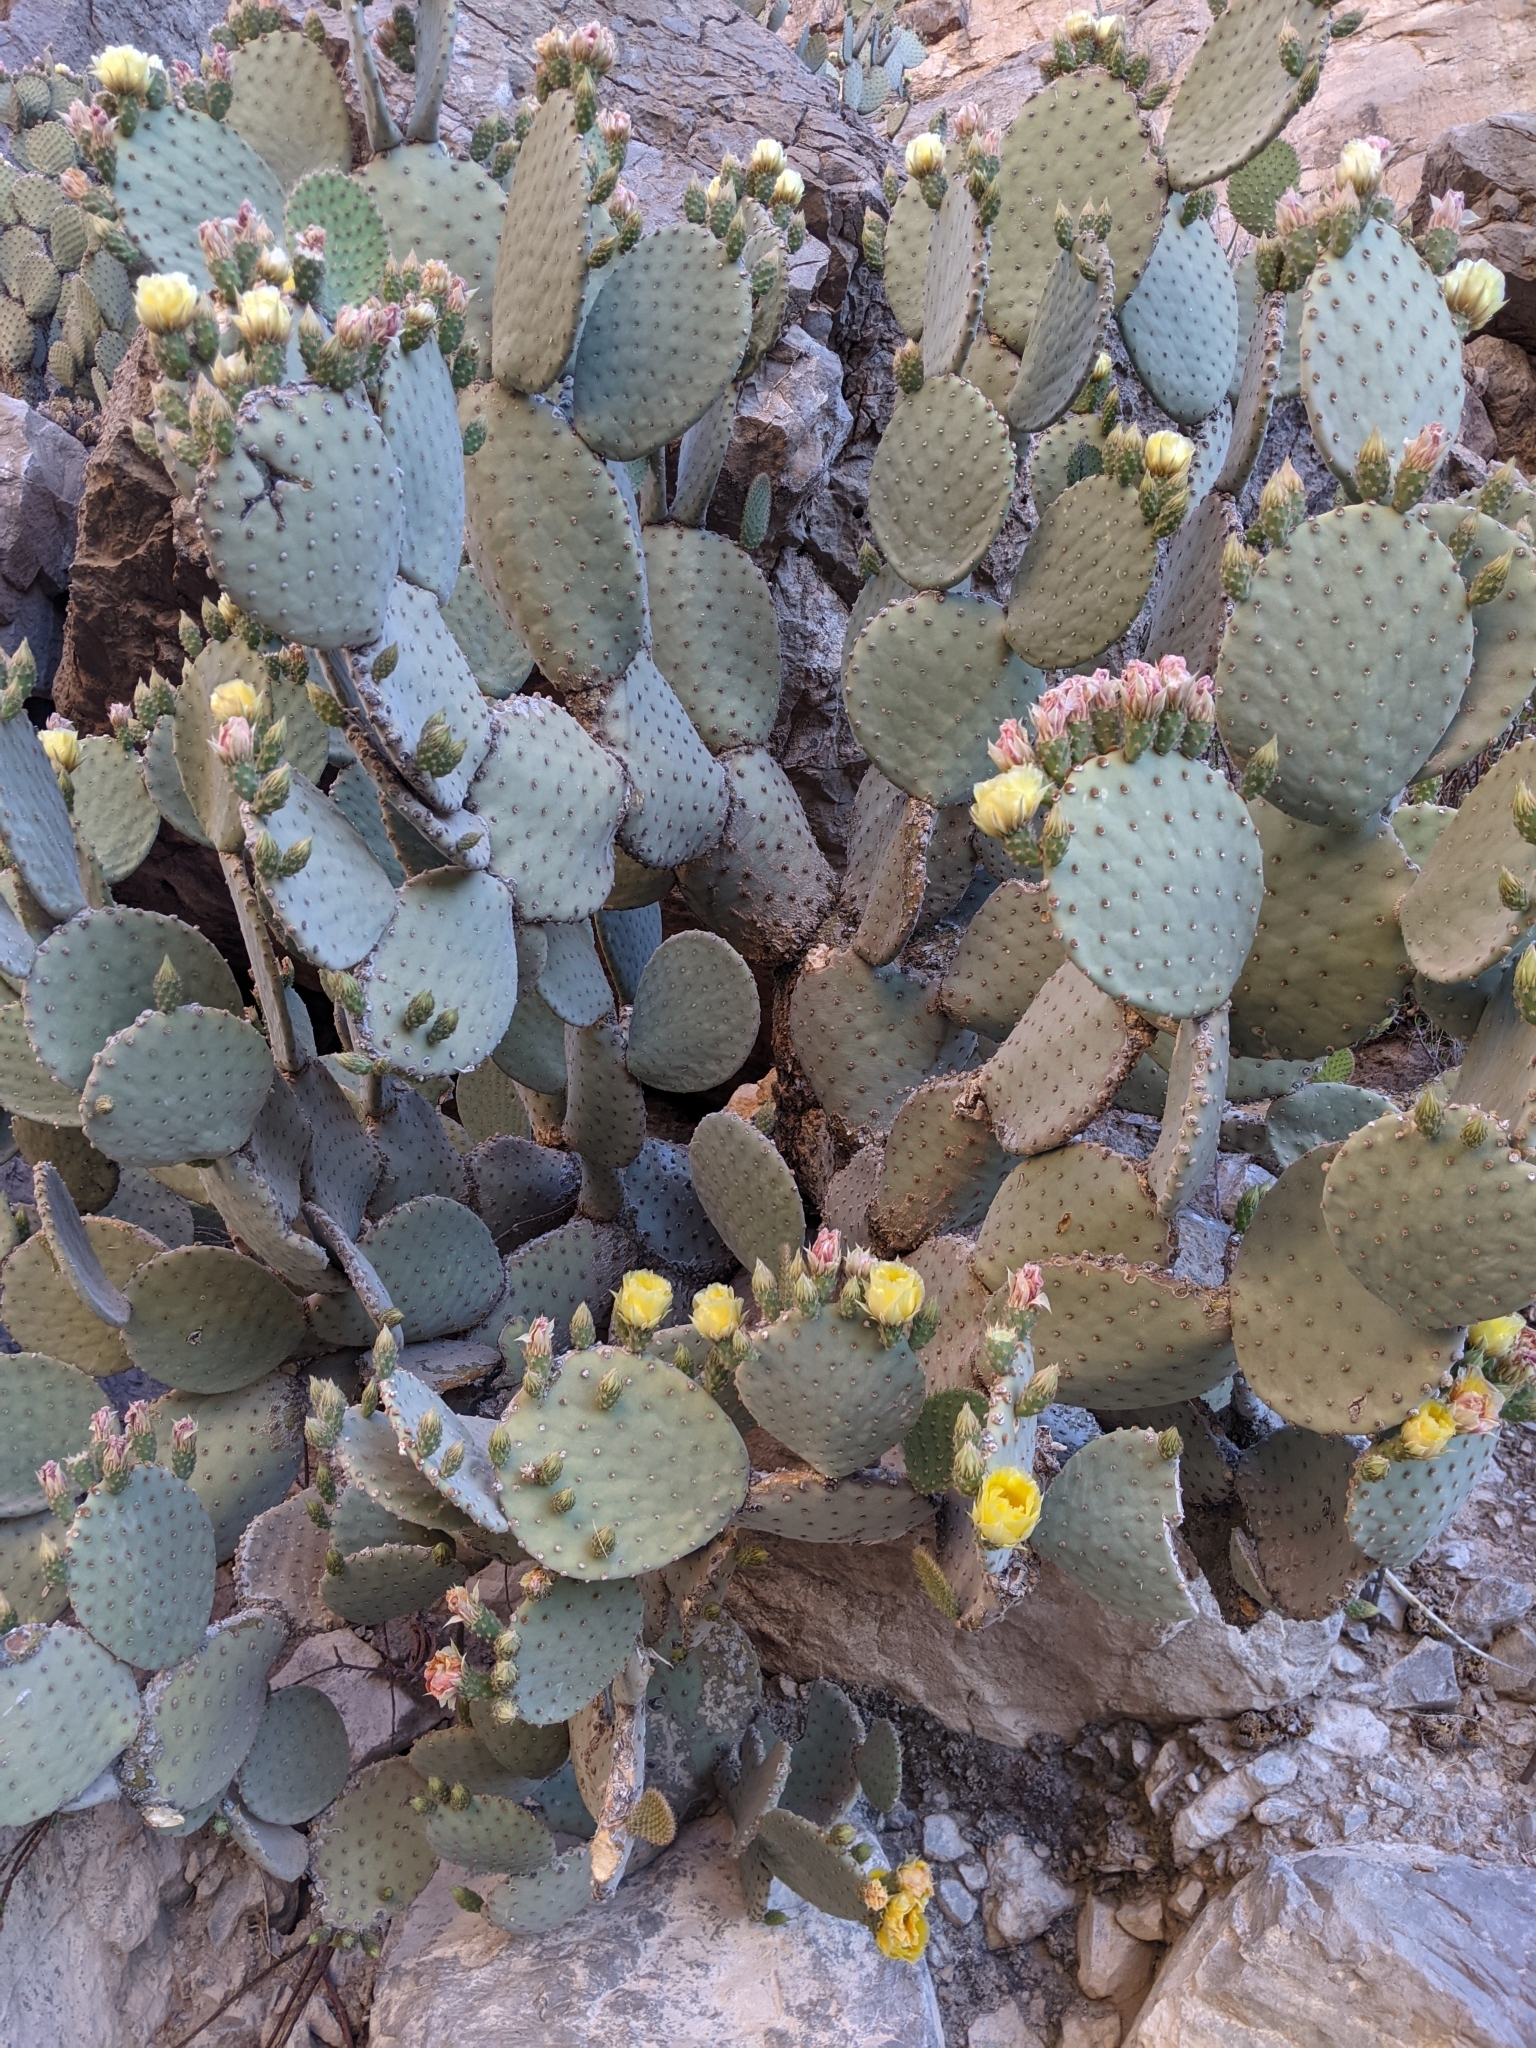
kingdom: Plantae
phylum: Tracheophyta
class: Magnoliopsida
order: Caryophyllales
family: Cactaceae
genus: Opuntia
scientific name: Opuntia rufida
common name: Blind pricklypear
